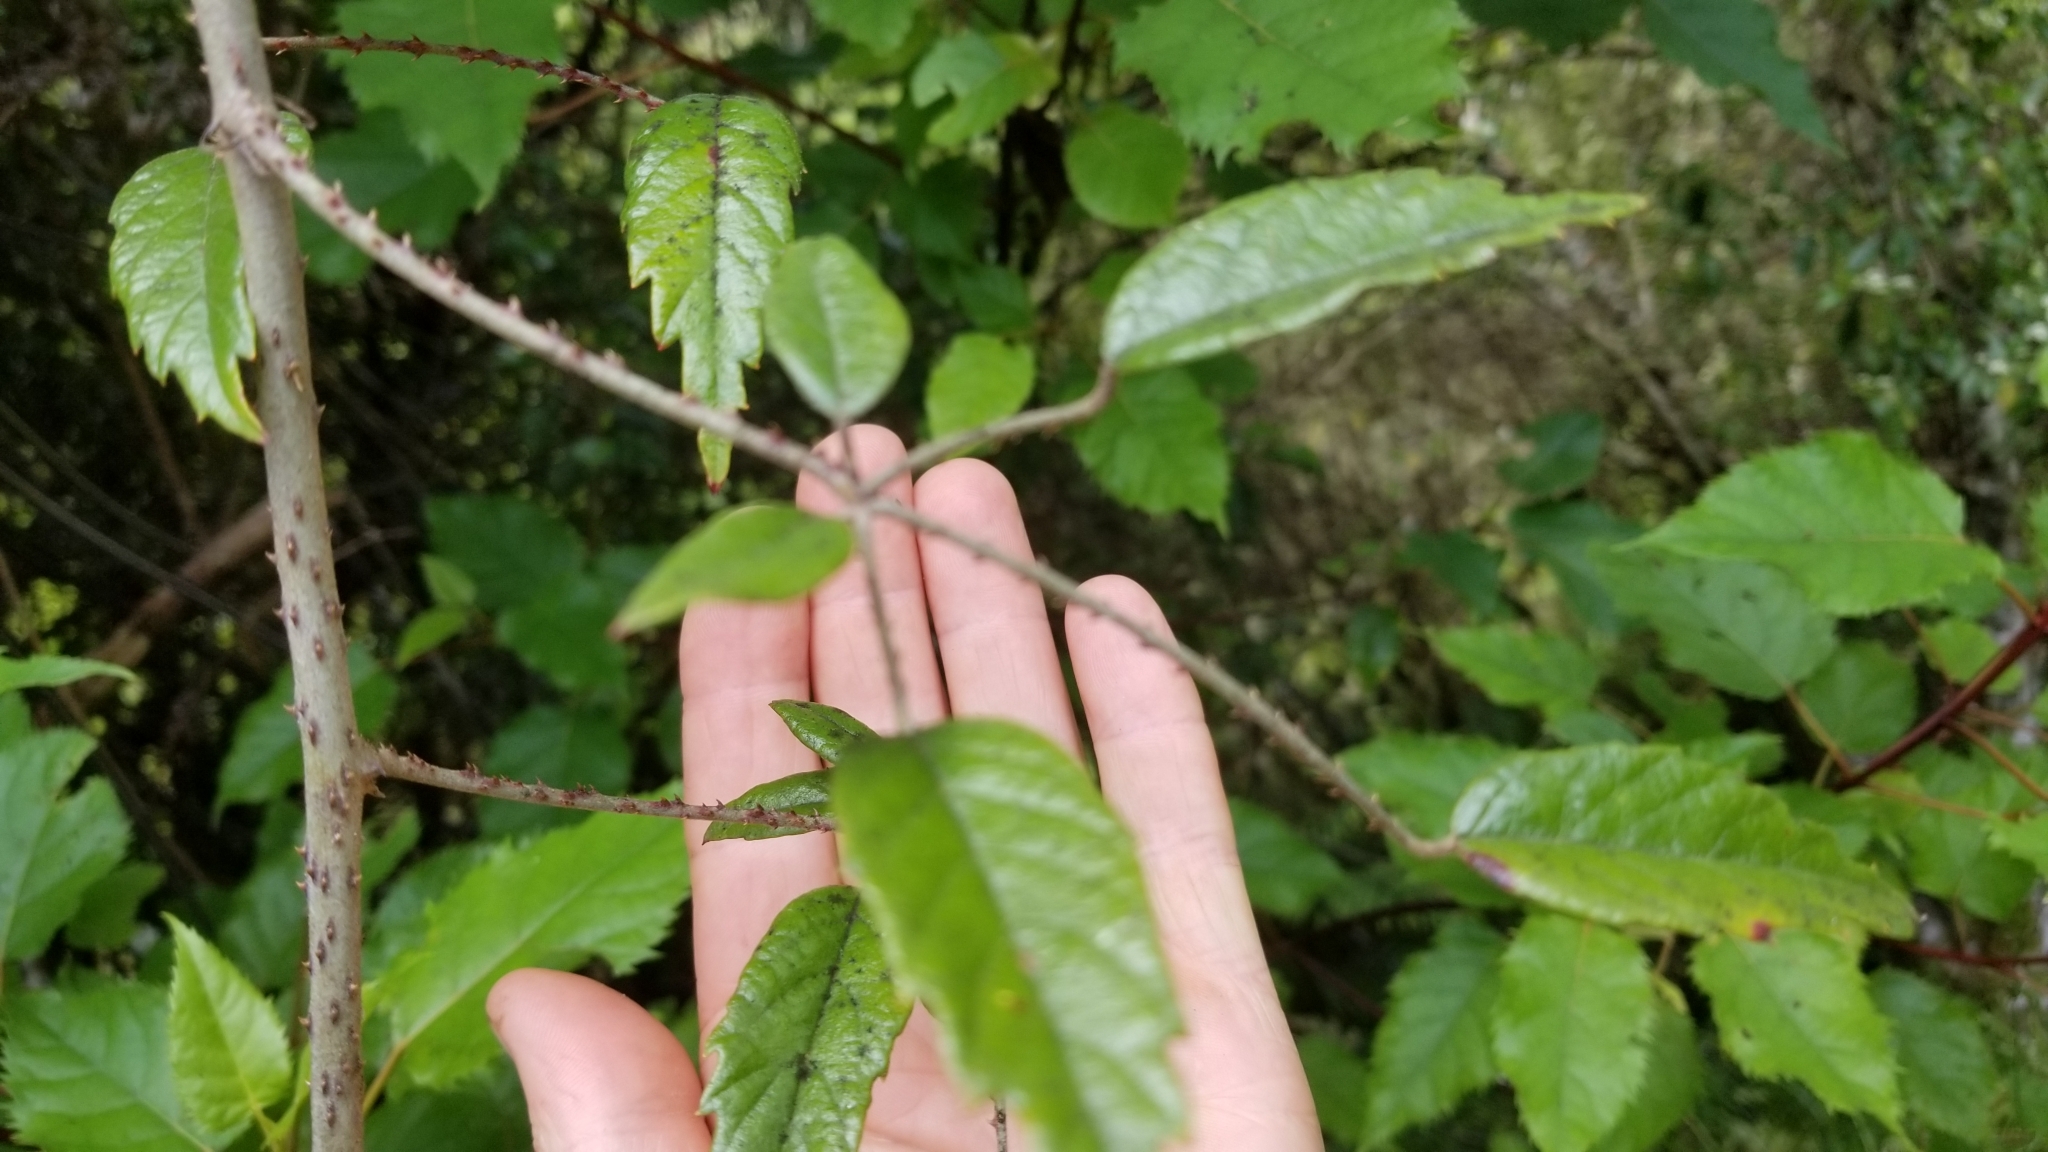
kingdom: Plantae
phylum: Tracheophyta
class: Magnoliopsida
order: Rosales
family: Rosaceae
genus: Rubus
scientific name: Rubus schmidelioides
